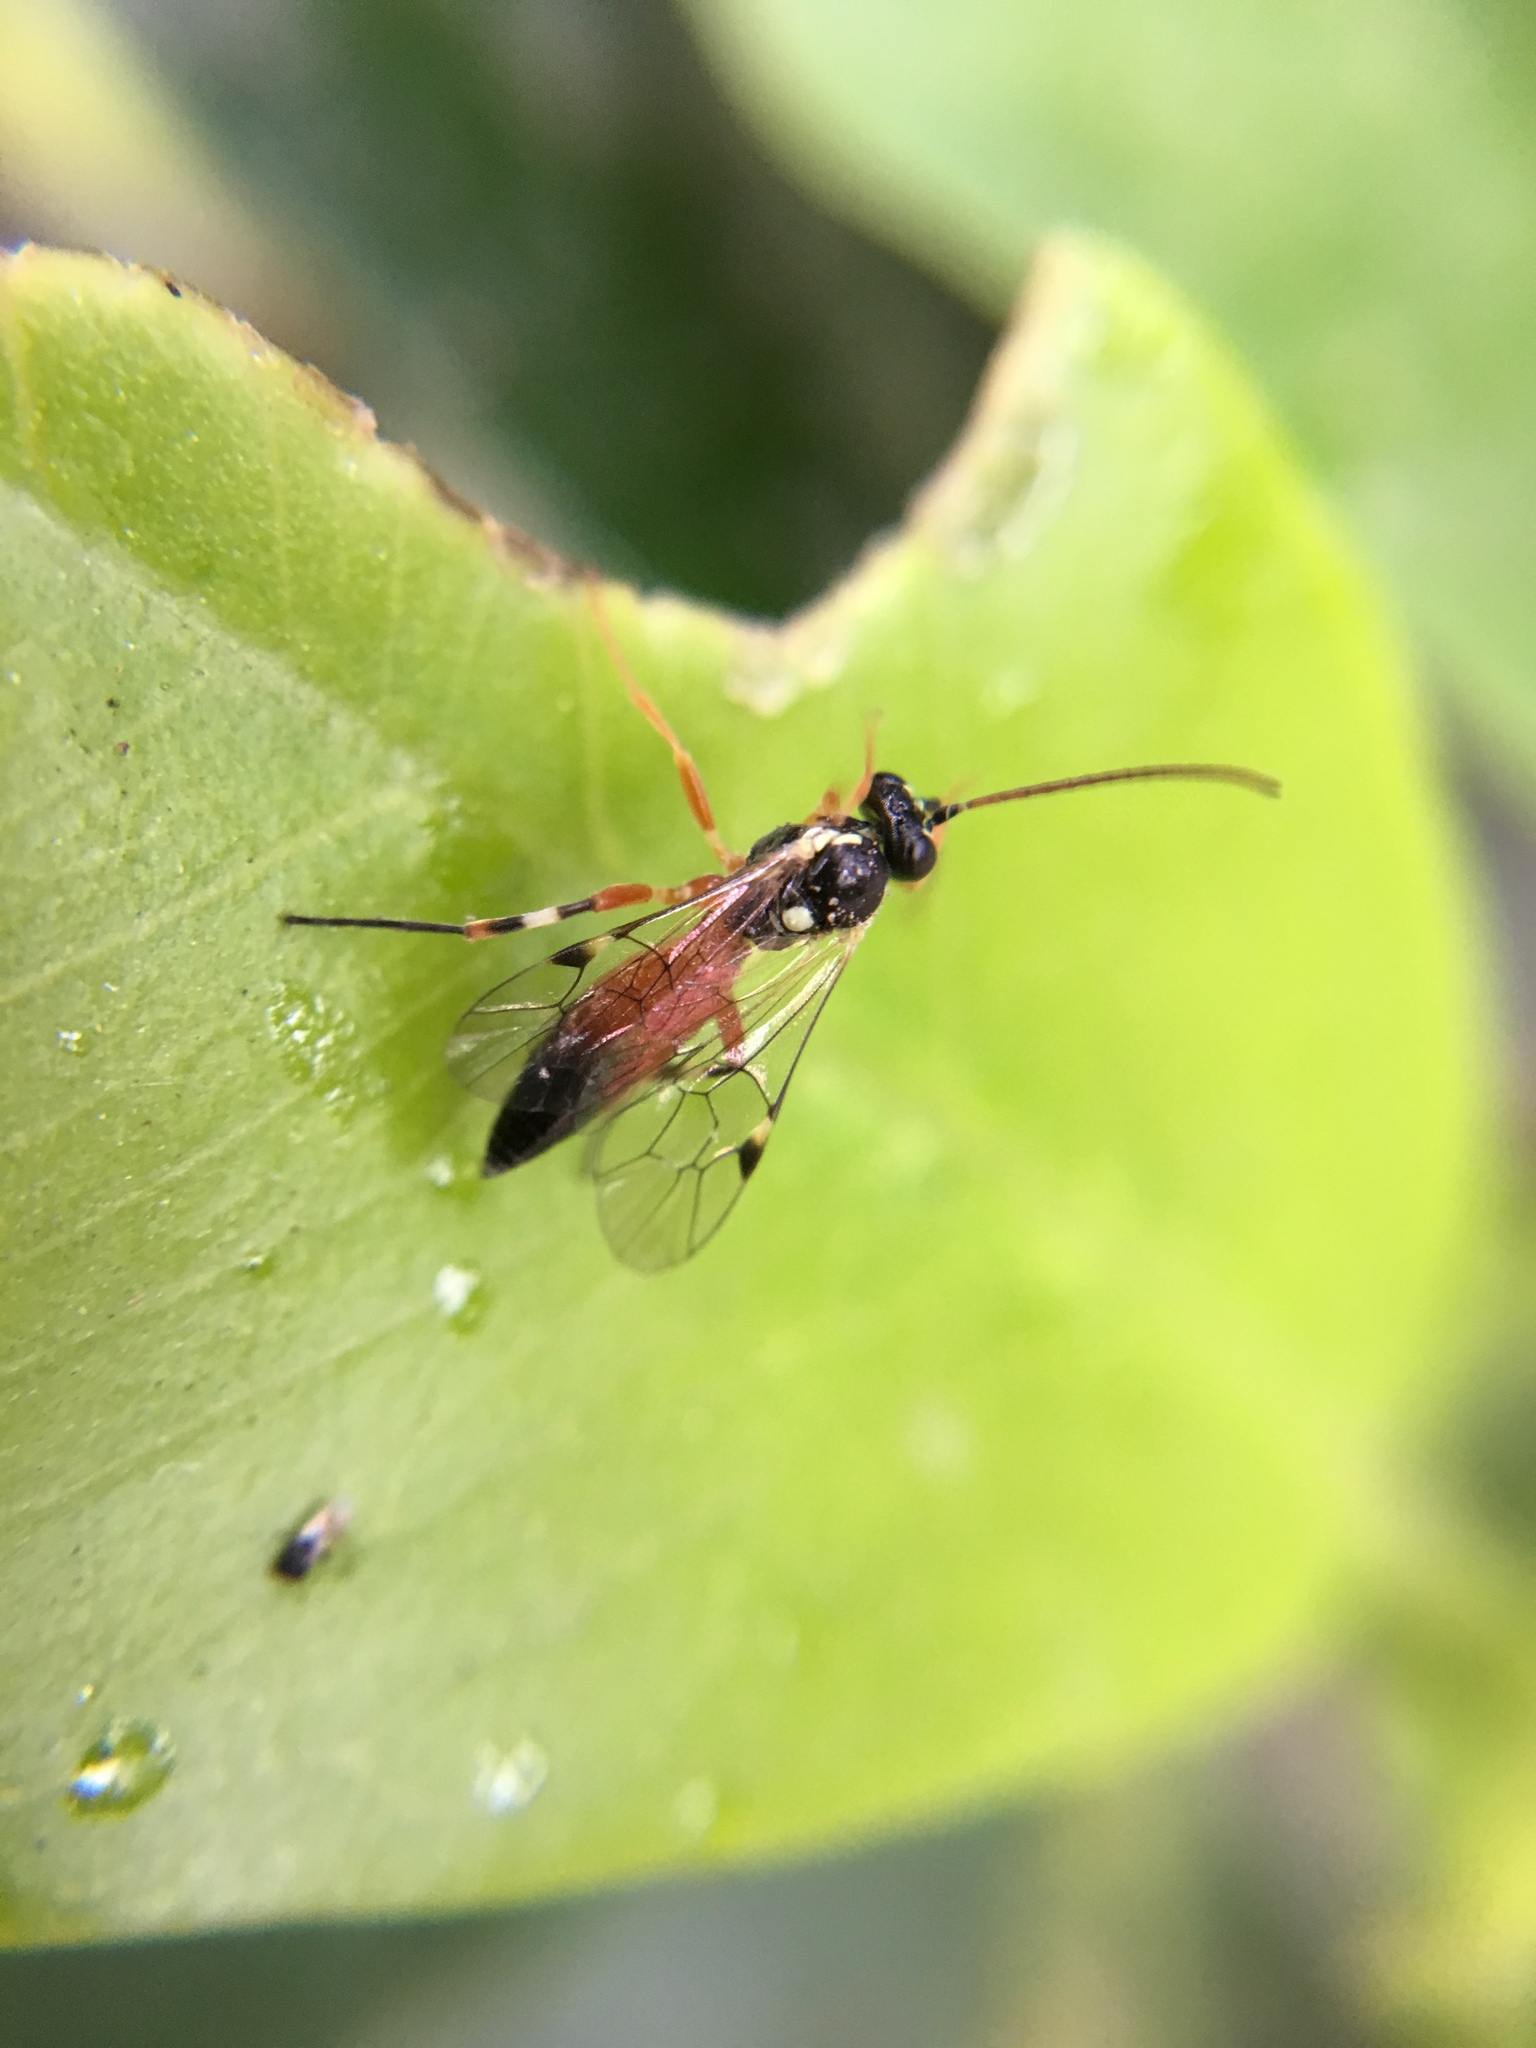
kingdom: Animalia
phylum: Arthropoda
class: Insecta
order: Hymenoptera
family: Ichneumonidae
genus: Diplazon
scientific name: Diplazon laetatorius
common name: Parasitoid wasp
